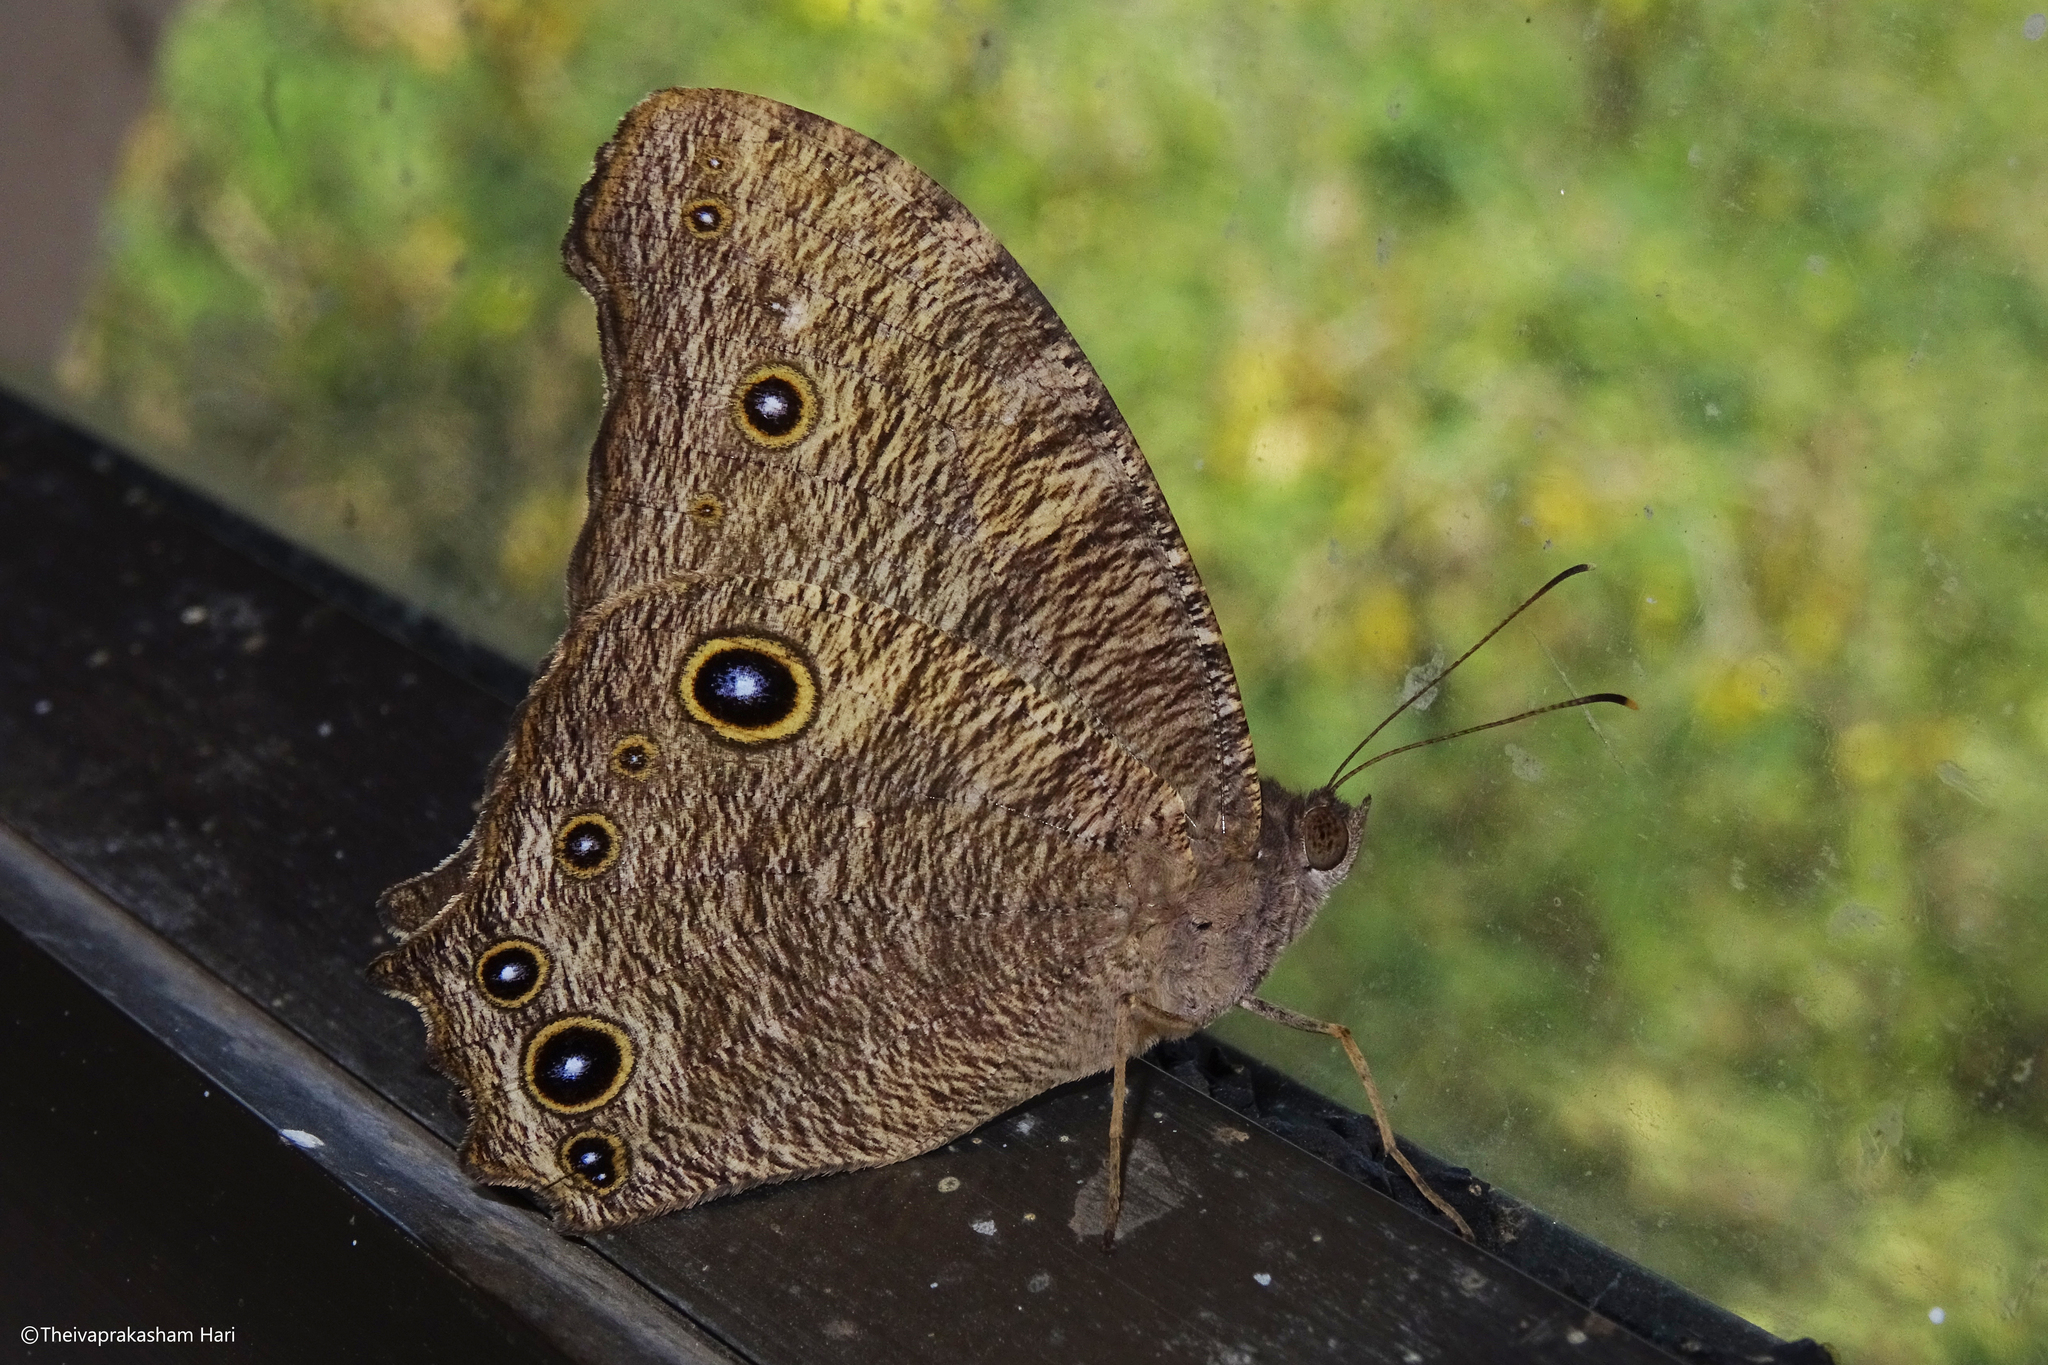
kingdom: Animalia
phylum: Arthropoda
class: Insecta
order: Lepidoptera
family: Nymphalidae
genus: Melanitis
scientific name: Melanitis leda
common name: Twilight brown
